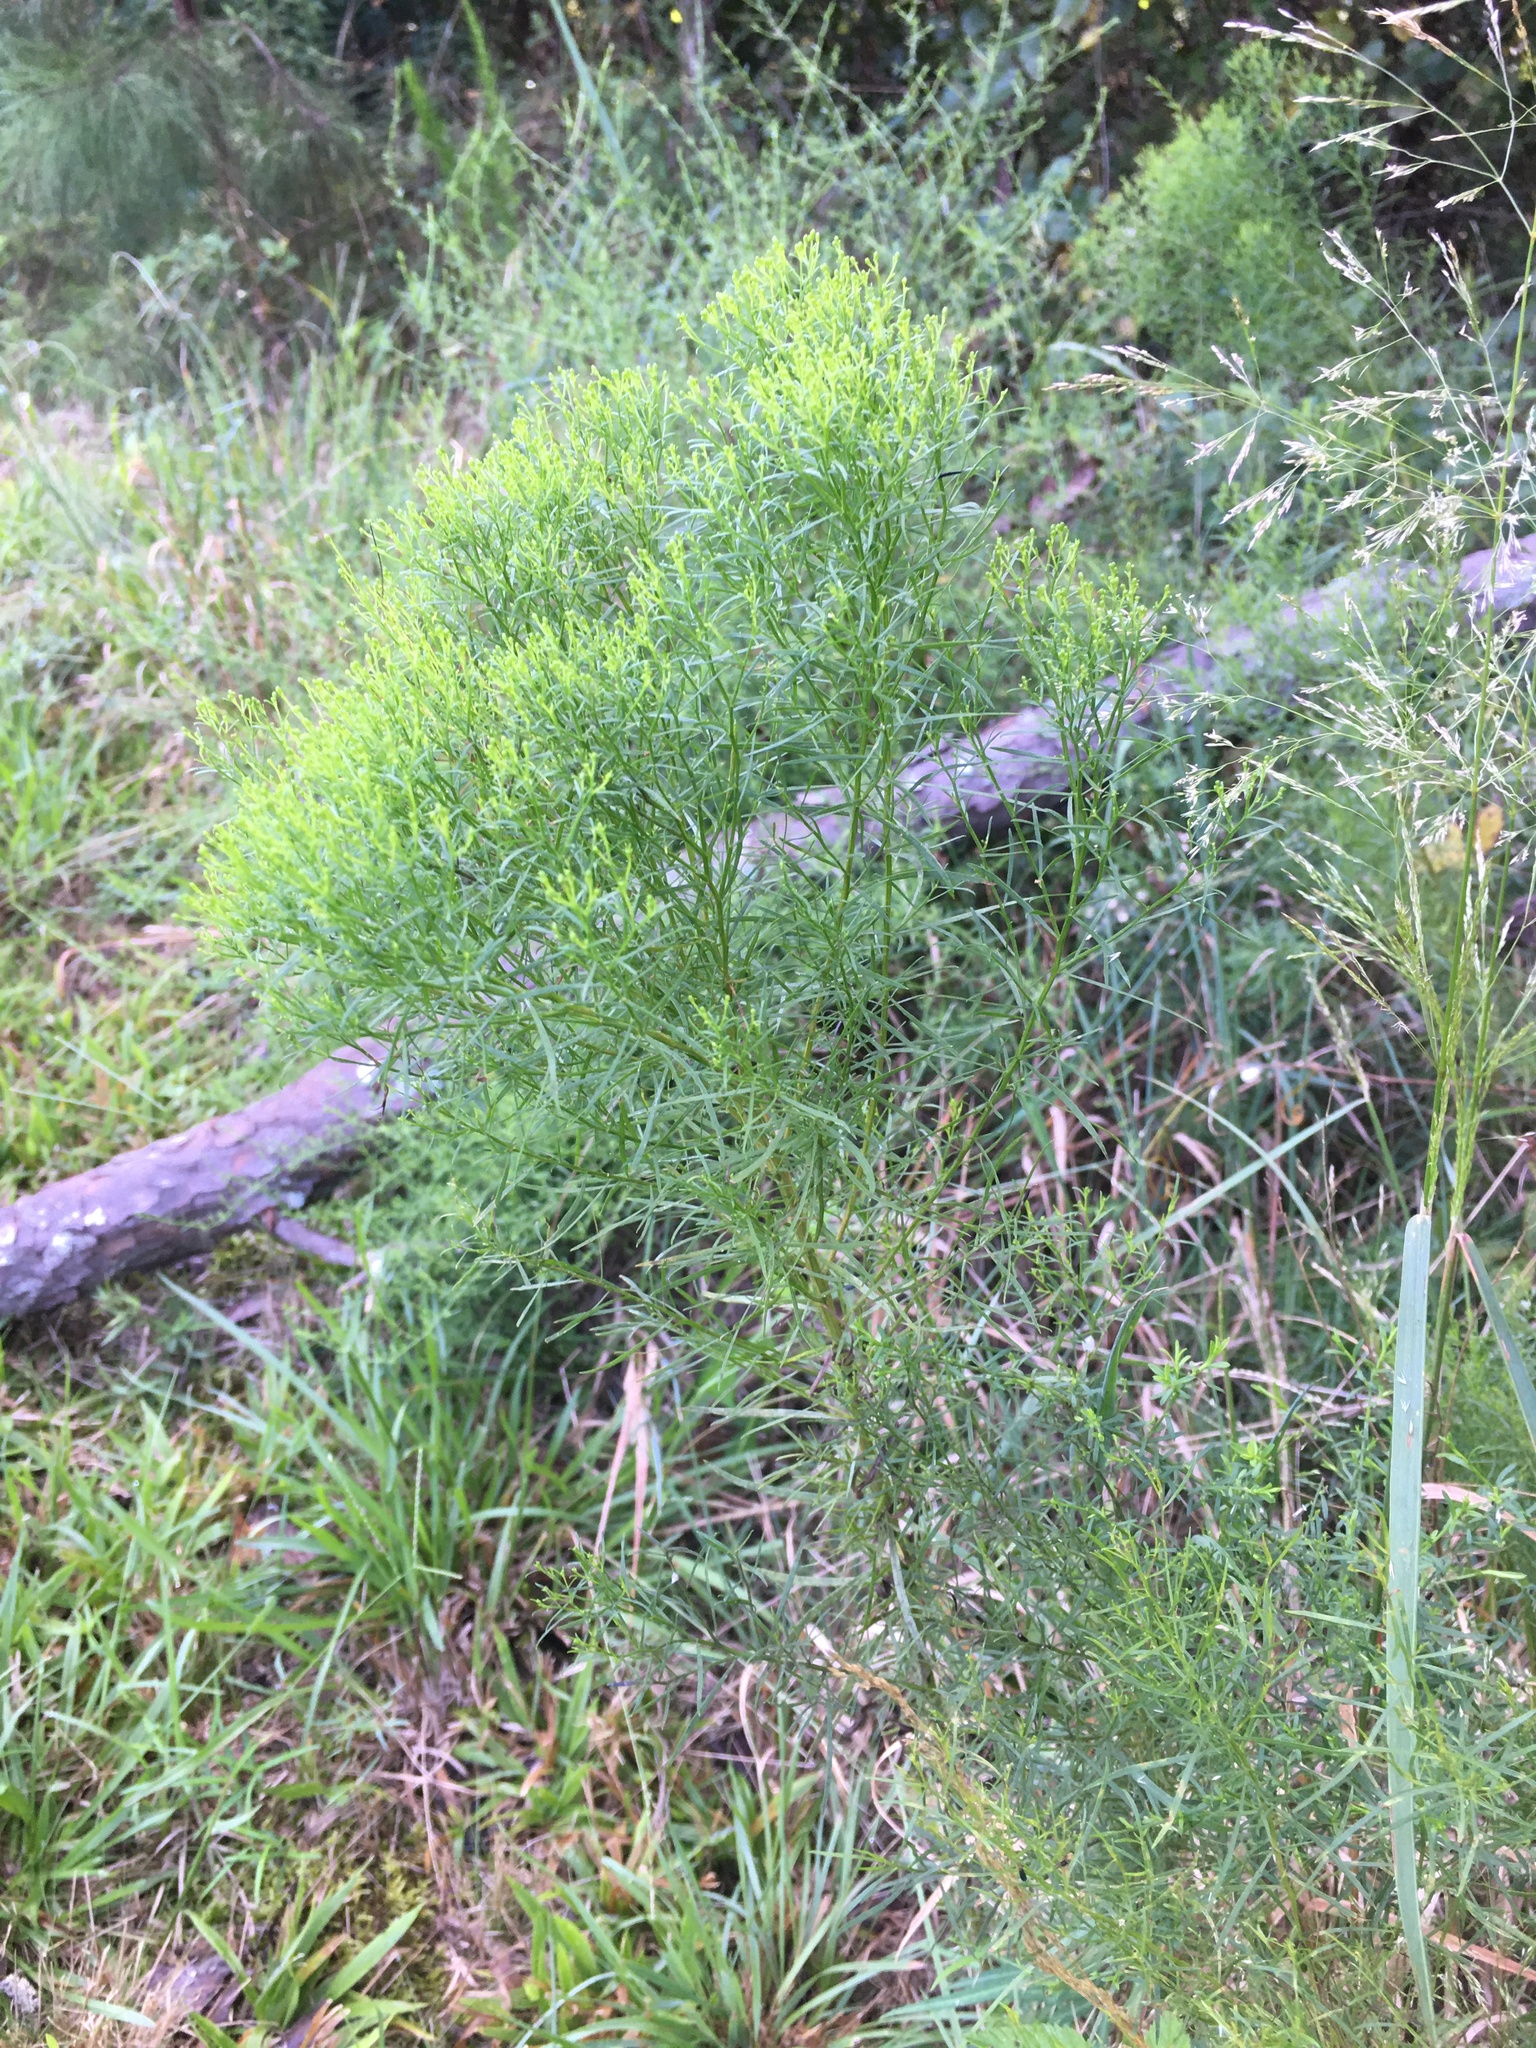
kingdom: Plantae
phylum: Tracheophyta
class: Magnoliopsida
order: Asterales
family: Asteraceae
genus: Euthamia
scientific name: Euthamia caroliniana
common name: Coastal plain goldentop
